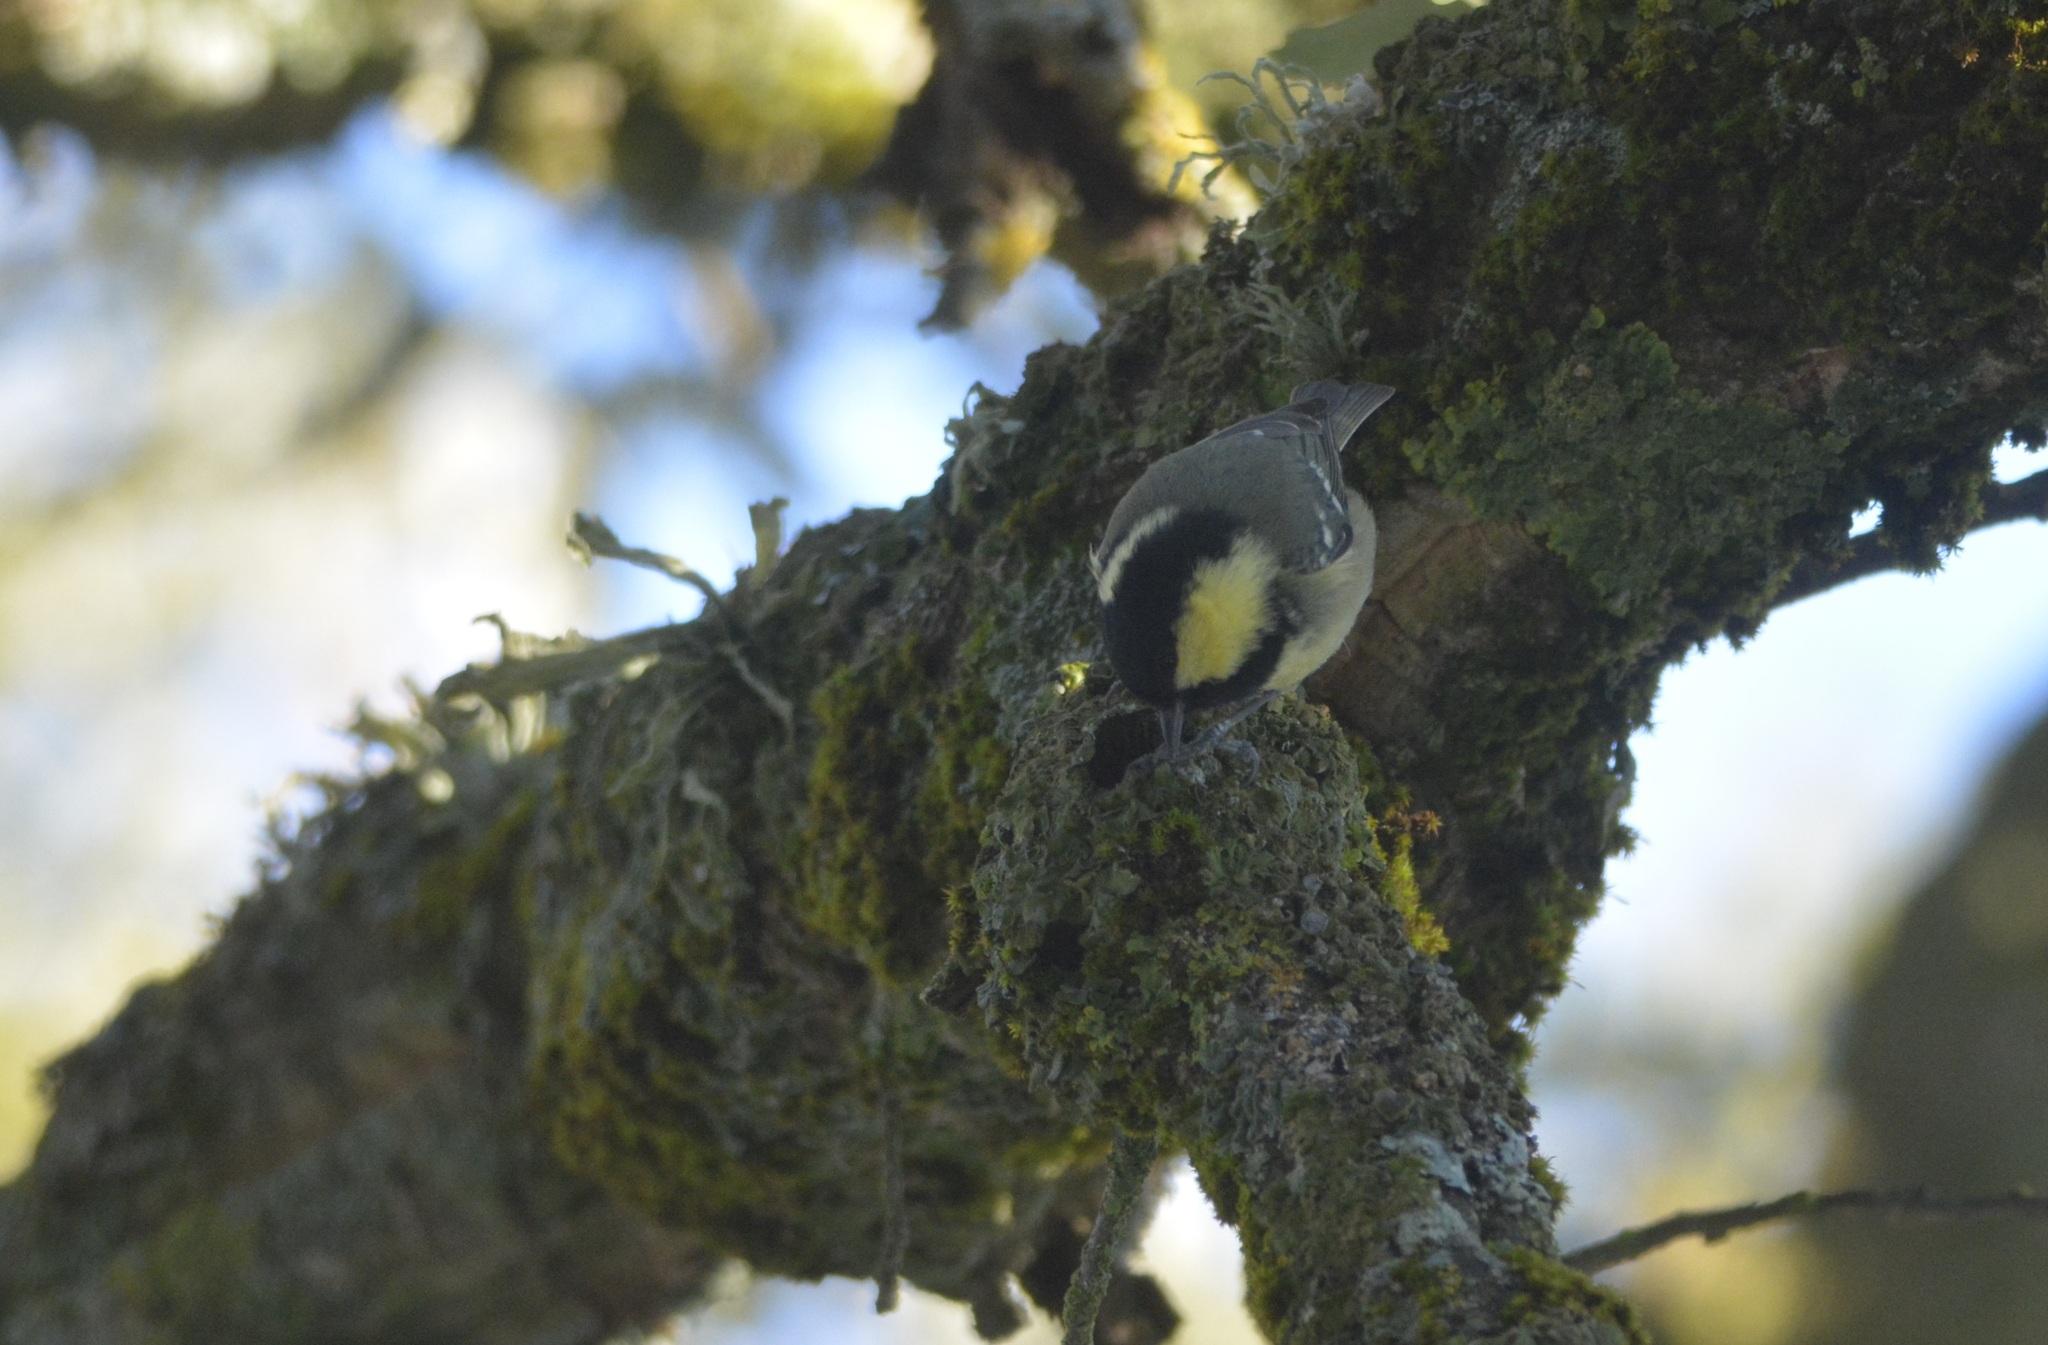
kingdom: Animalia
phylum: Chordata
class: Aves
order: Passeriformes
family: Paridae
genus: Periparus
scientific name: Periparus ater
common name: Coal tit
